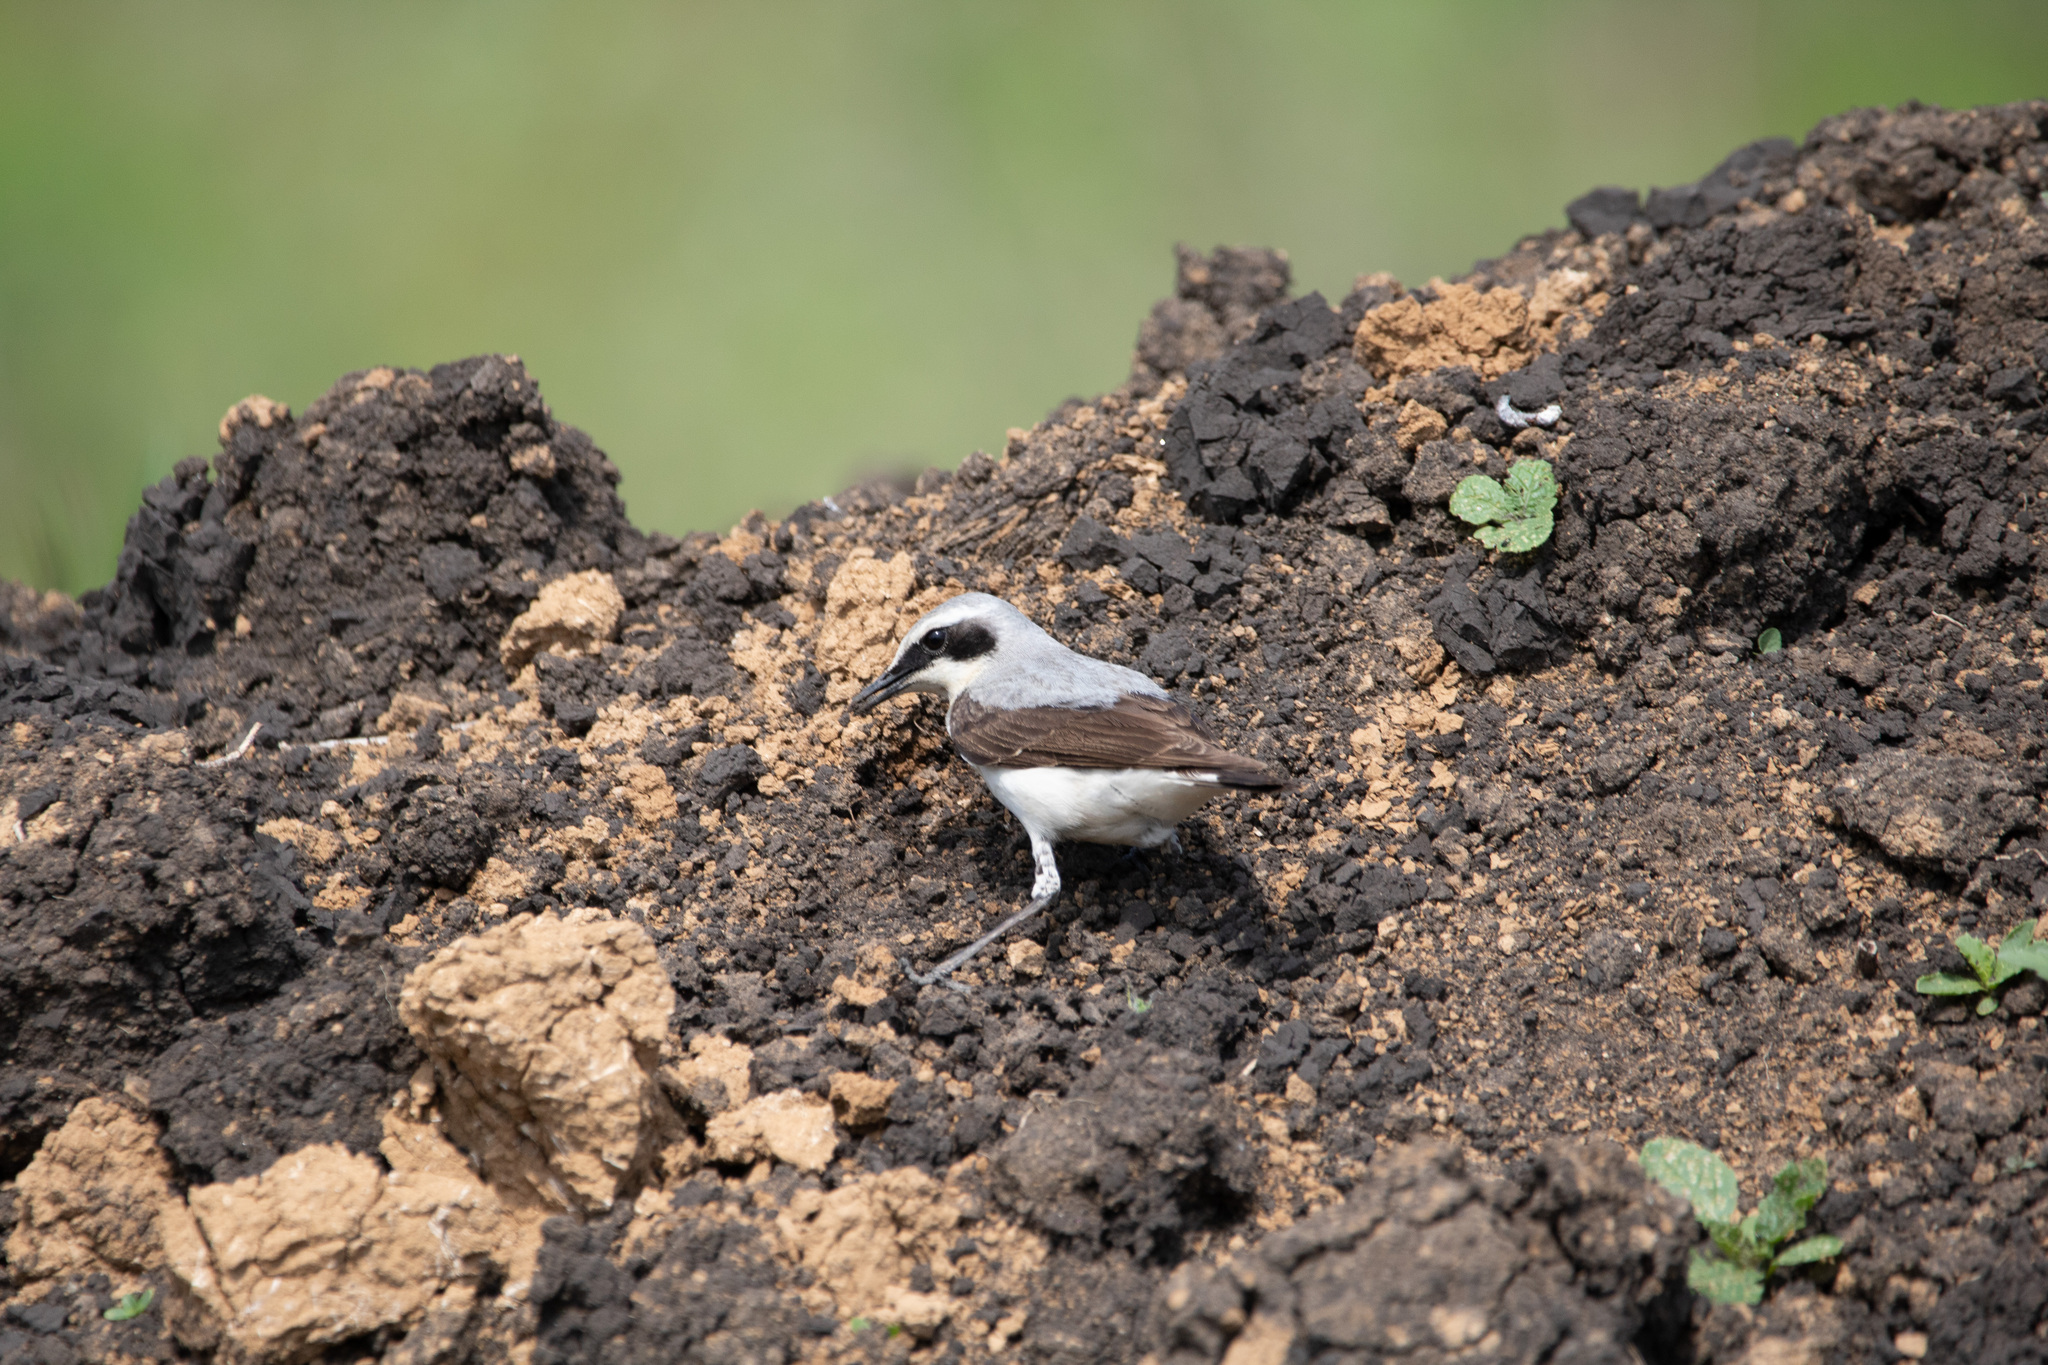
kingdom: Animalia
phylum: Chordata
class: Aves
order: Passeriformes
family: Muscicapidae
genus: Oenanthe
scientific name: Oenanthe oenanthe
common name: Northern wheatear
